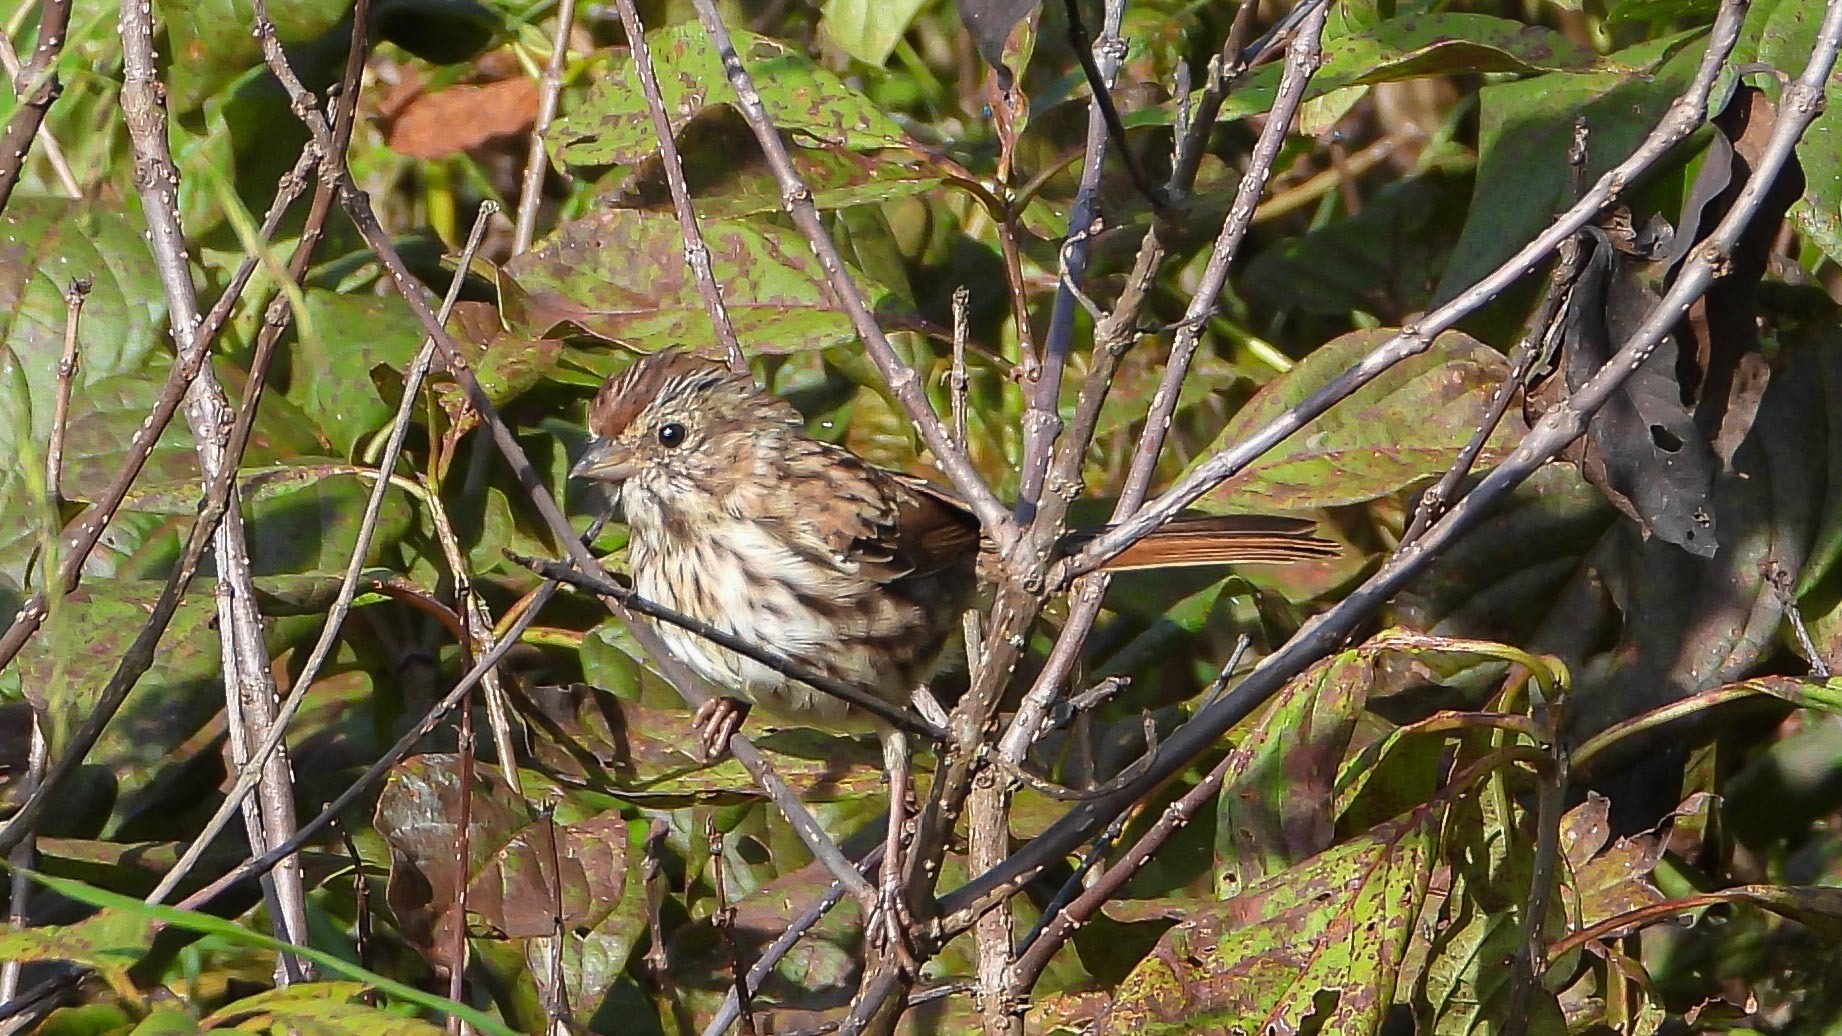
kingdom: Animalia
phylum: Chordata
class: Aves
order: Passeriformes
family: Passerellidae
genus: Melospiza
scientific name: Melospiza melodia
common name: Song sparrow
